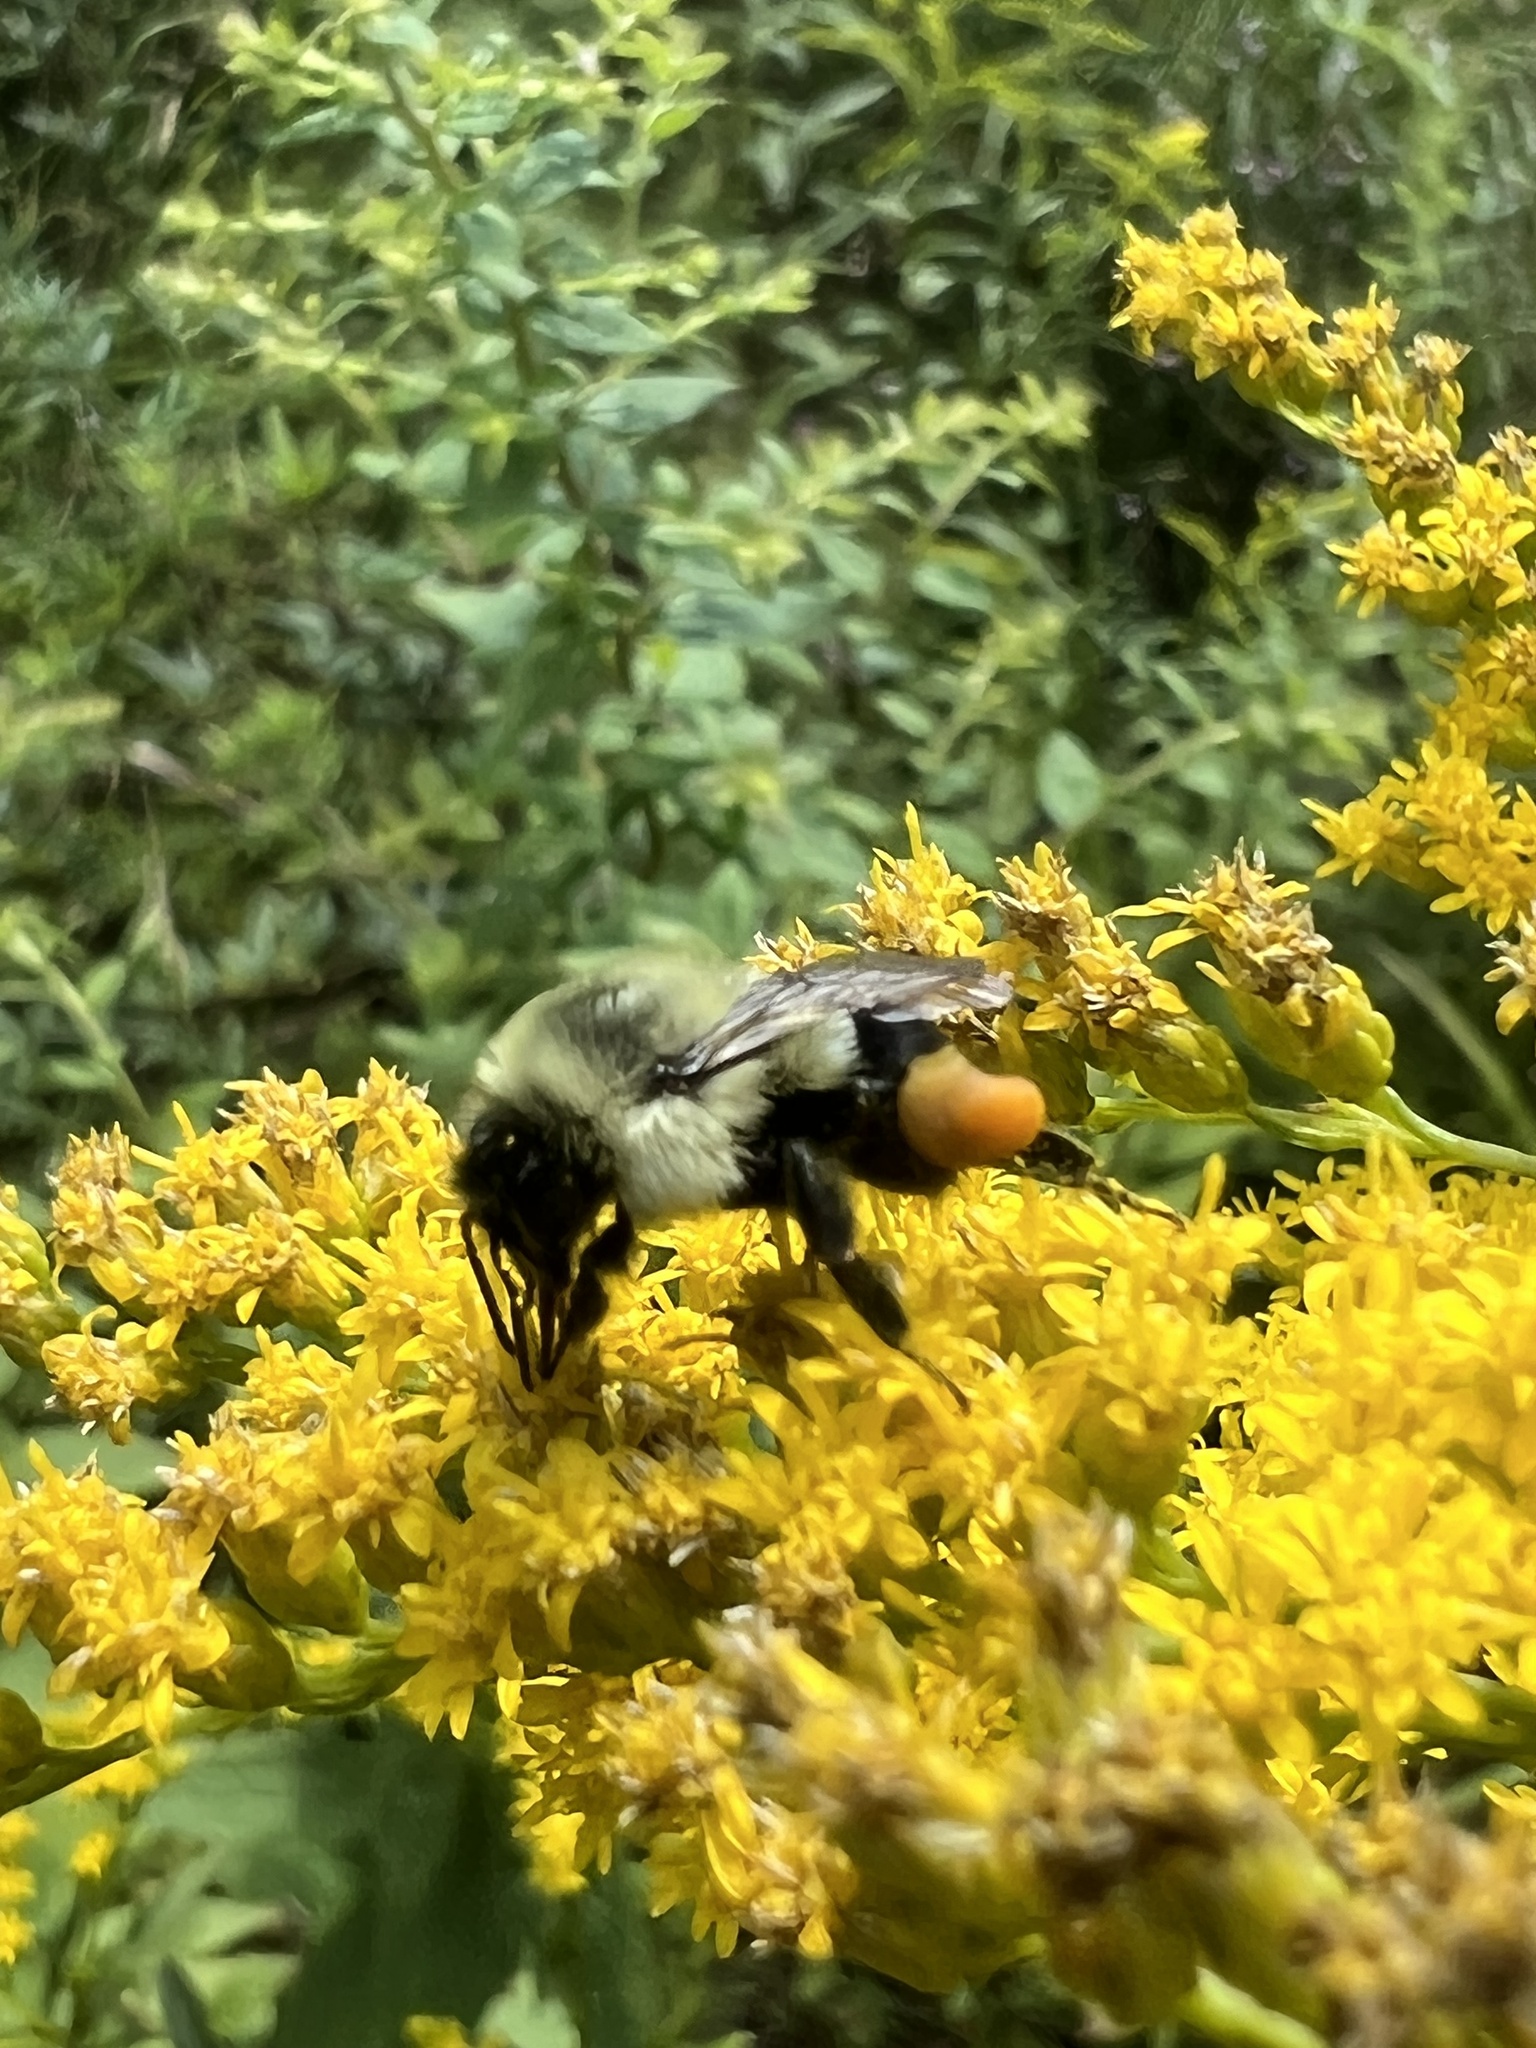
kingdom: Animalia
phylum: Arthropoda
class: Insecta
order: Hymenoptera
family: Apidae
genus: Bombus
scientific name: Bombus impatiens
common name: Common eastern bumble bee
